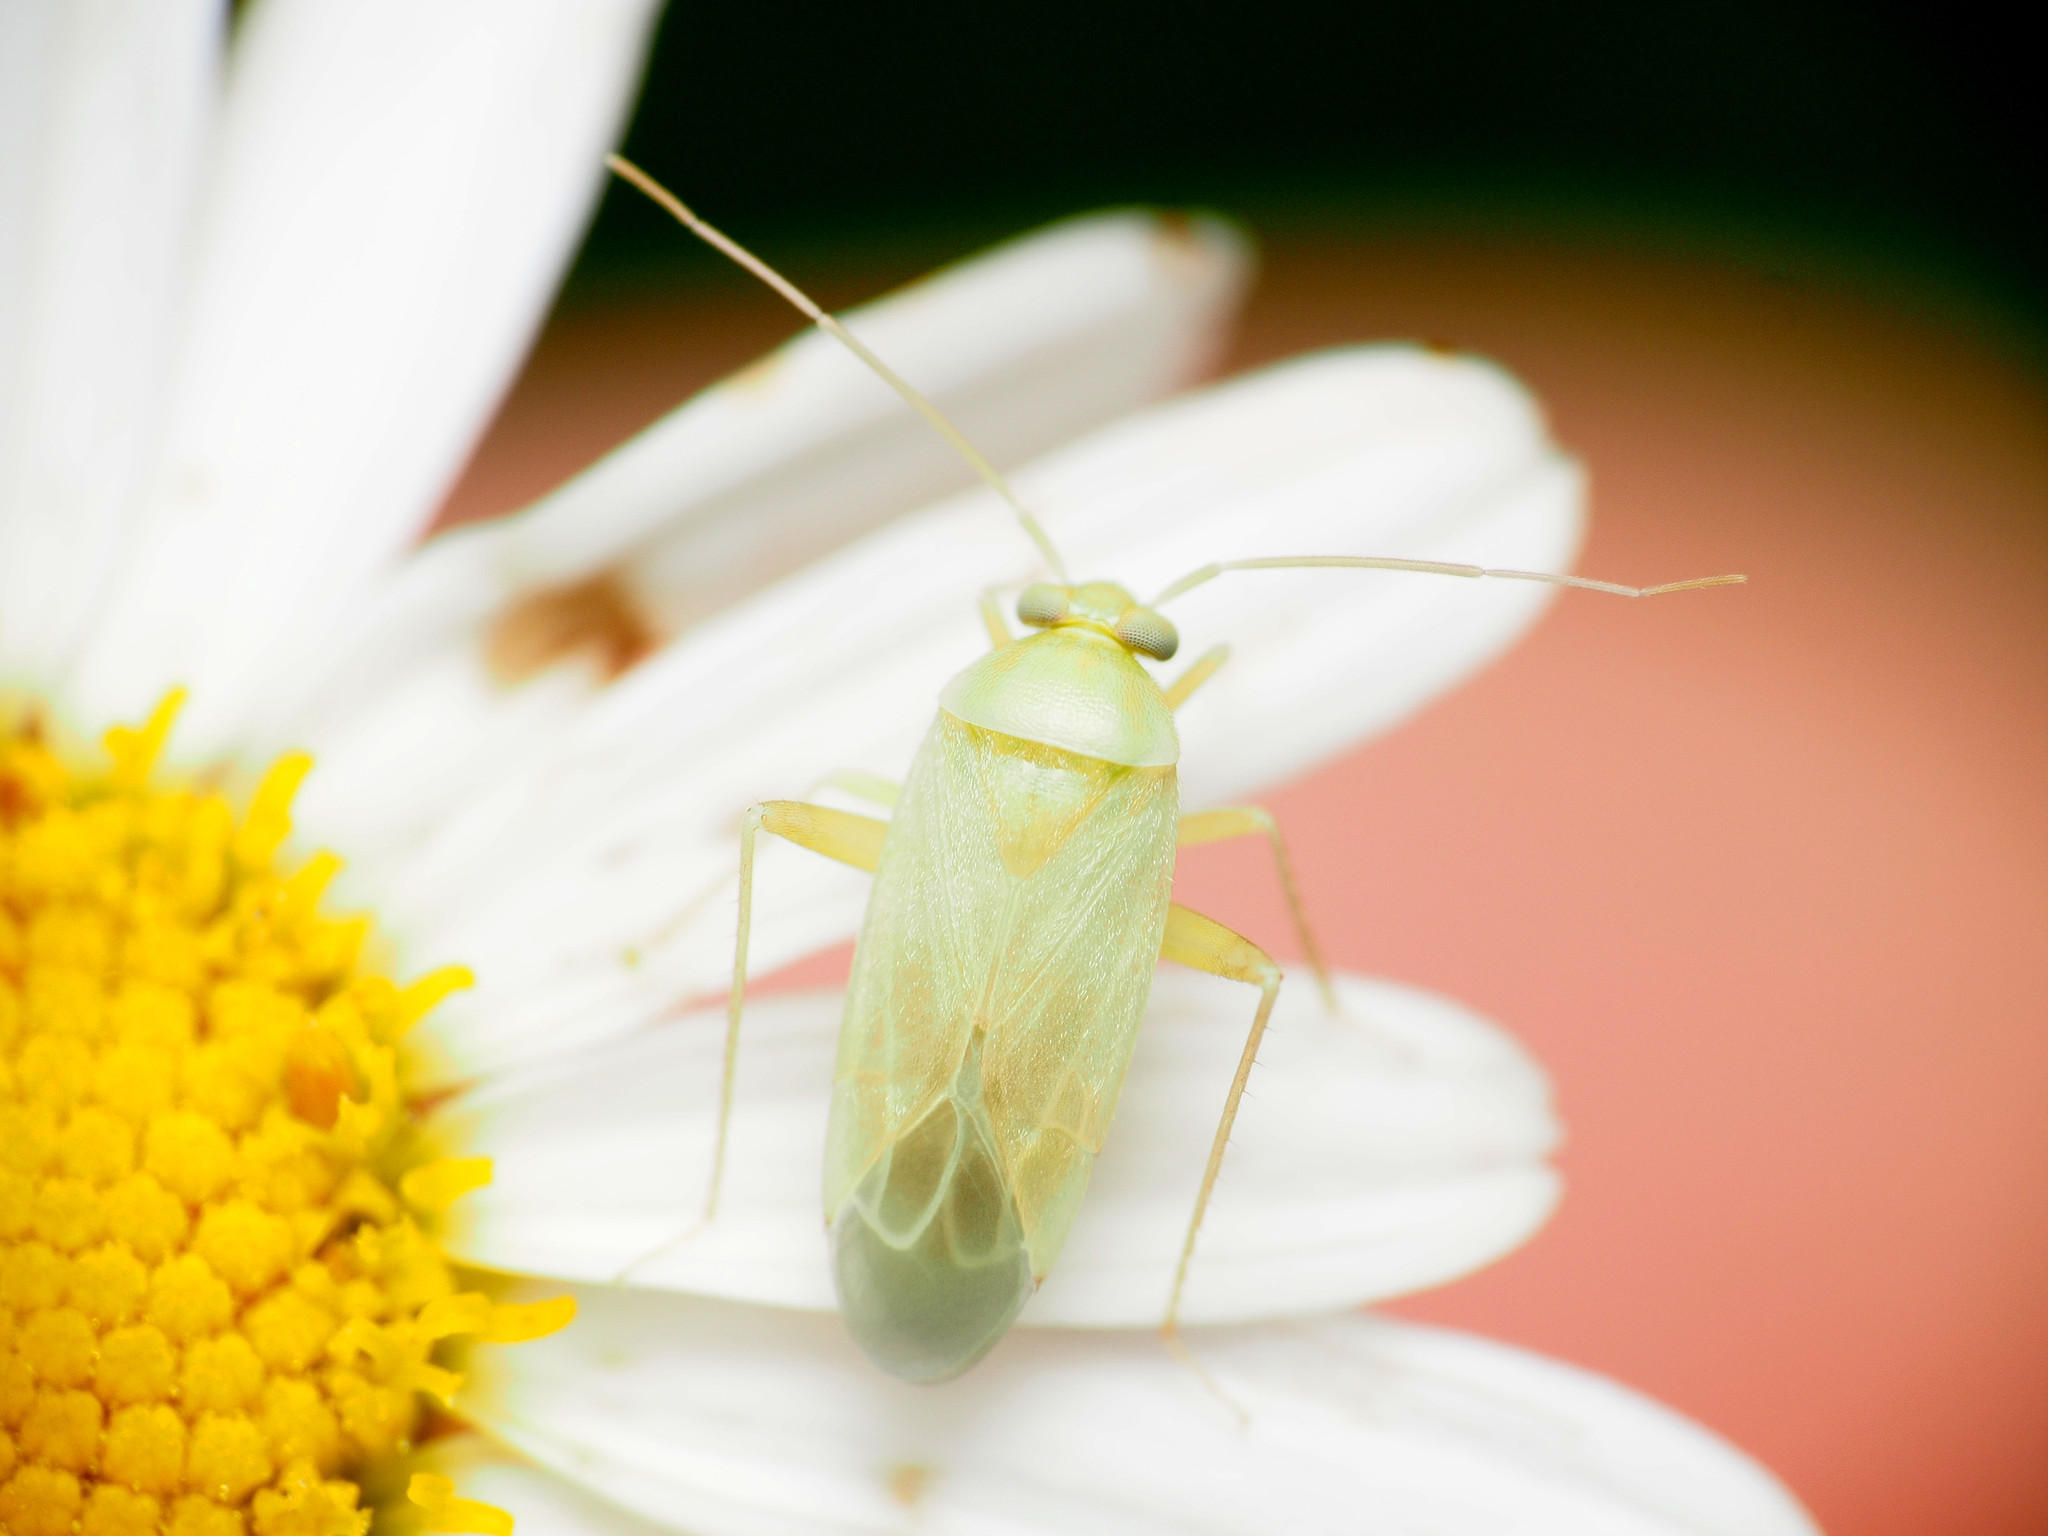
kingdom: Animalia
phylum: Arthropoda
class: Insecta
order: Hemiptera
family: Miridae
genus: Taylorilygus
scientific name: Taylorilygus apicalis
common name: Plant bug
